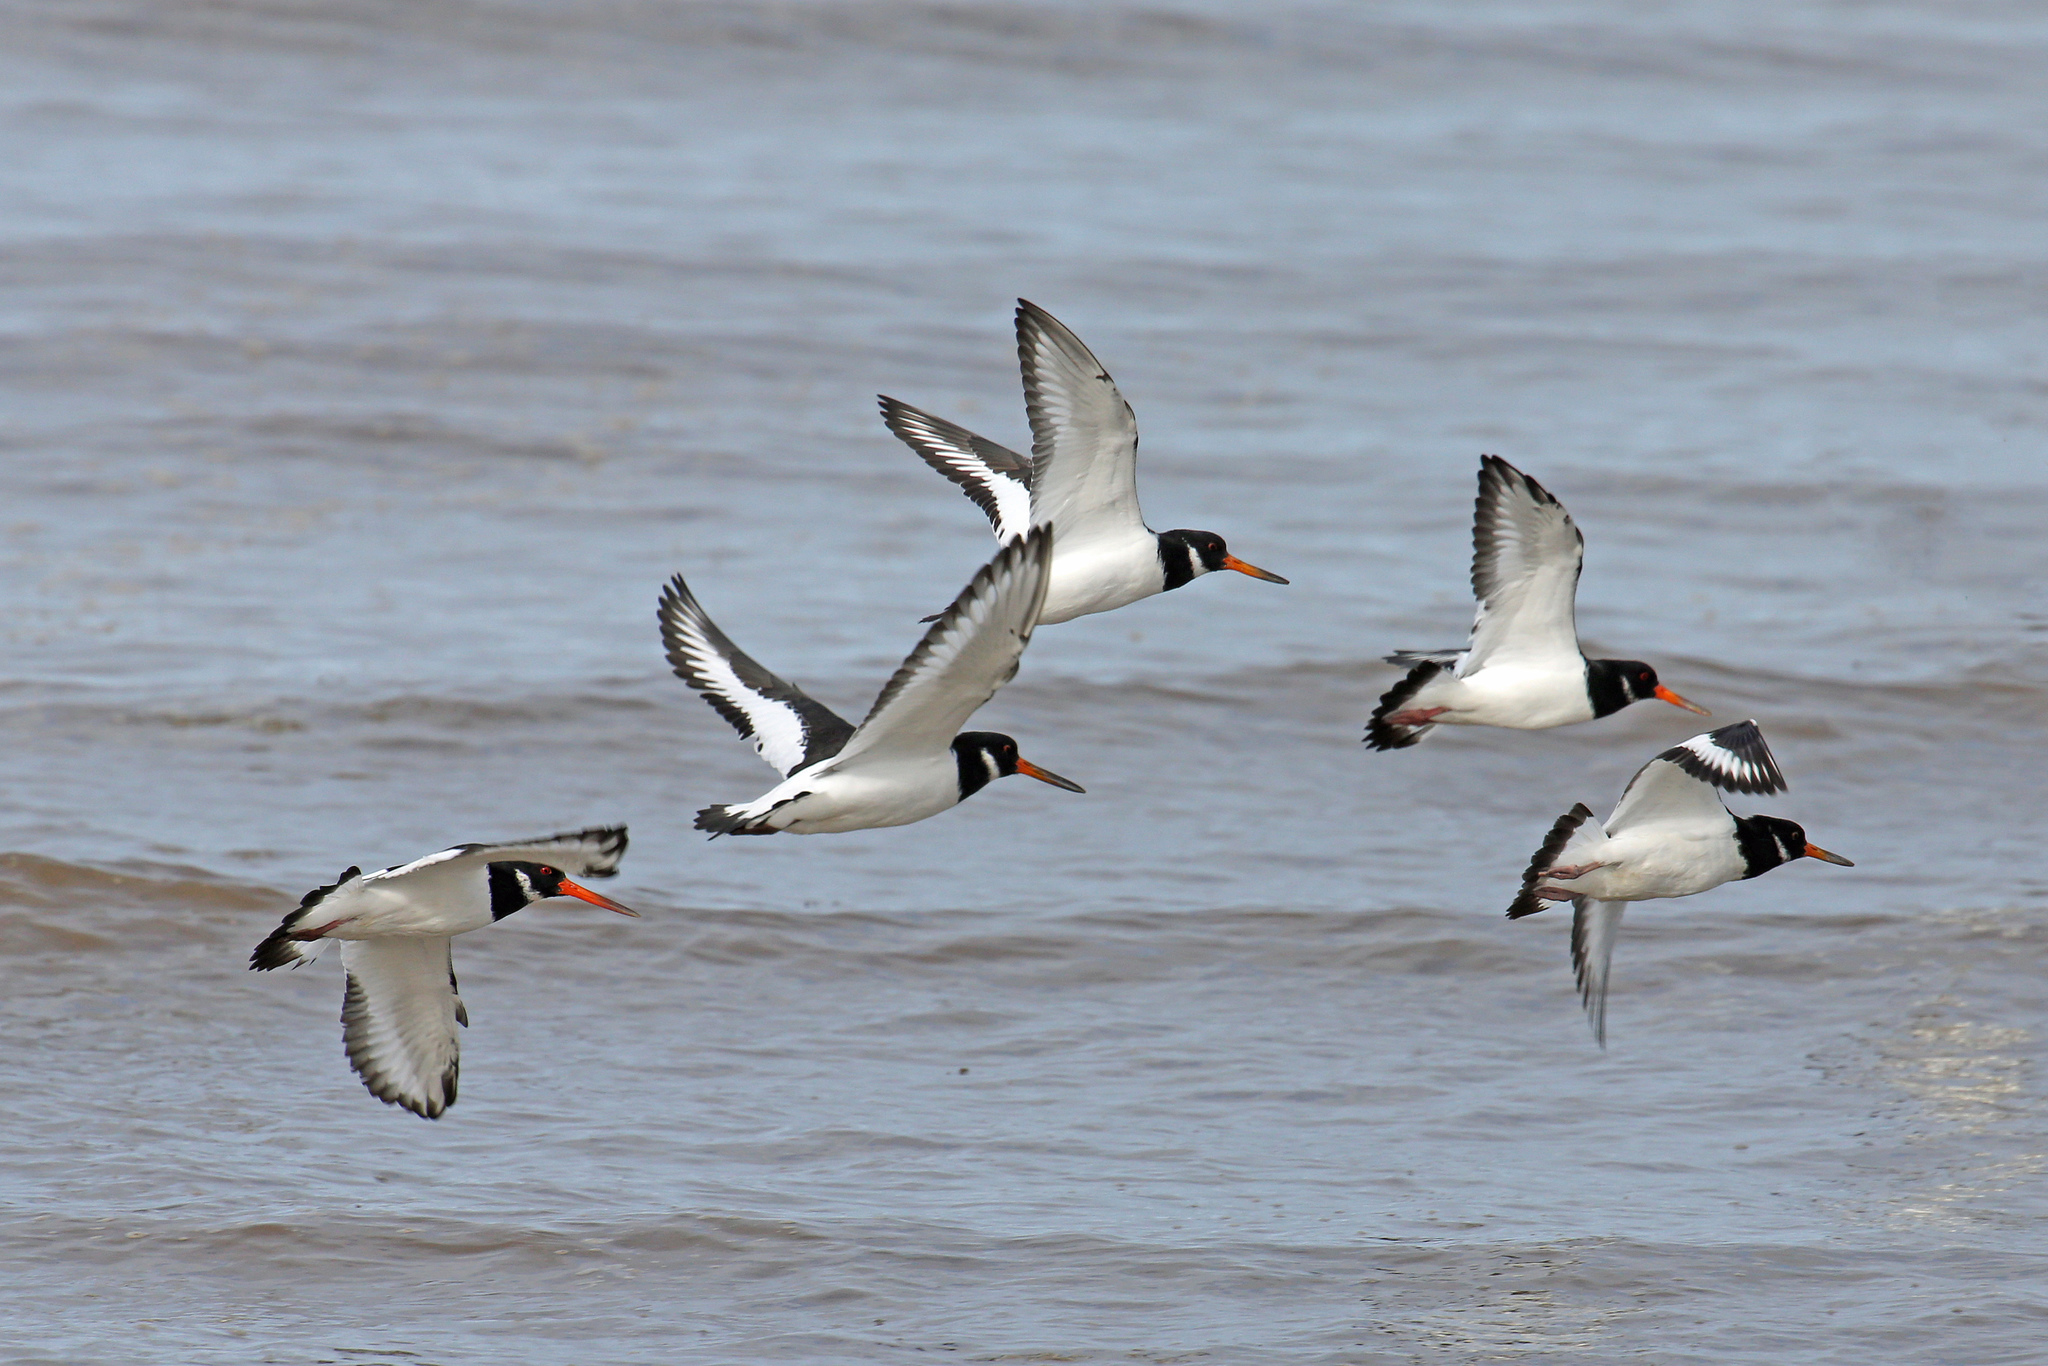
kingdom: Animalia
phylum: Chordata
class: Aves
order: Charadriiformes
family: Haematopodidae
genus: Haematopus
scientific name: Haematopus ostralegus
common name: Eurasian oystercatcher
